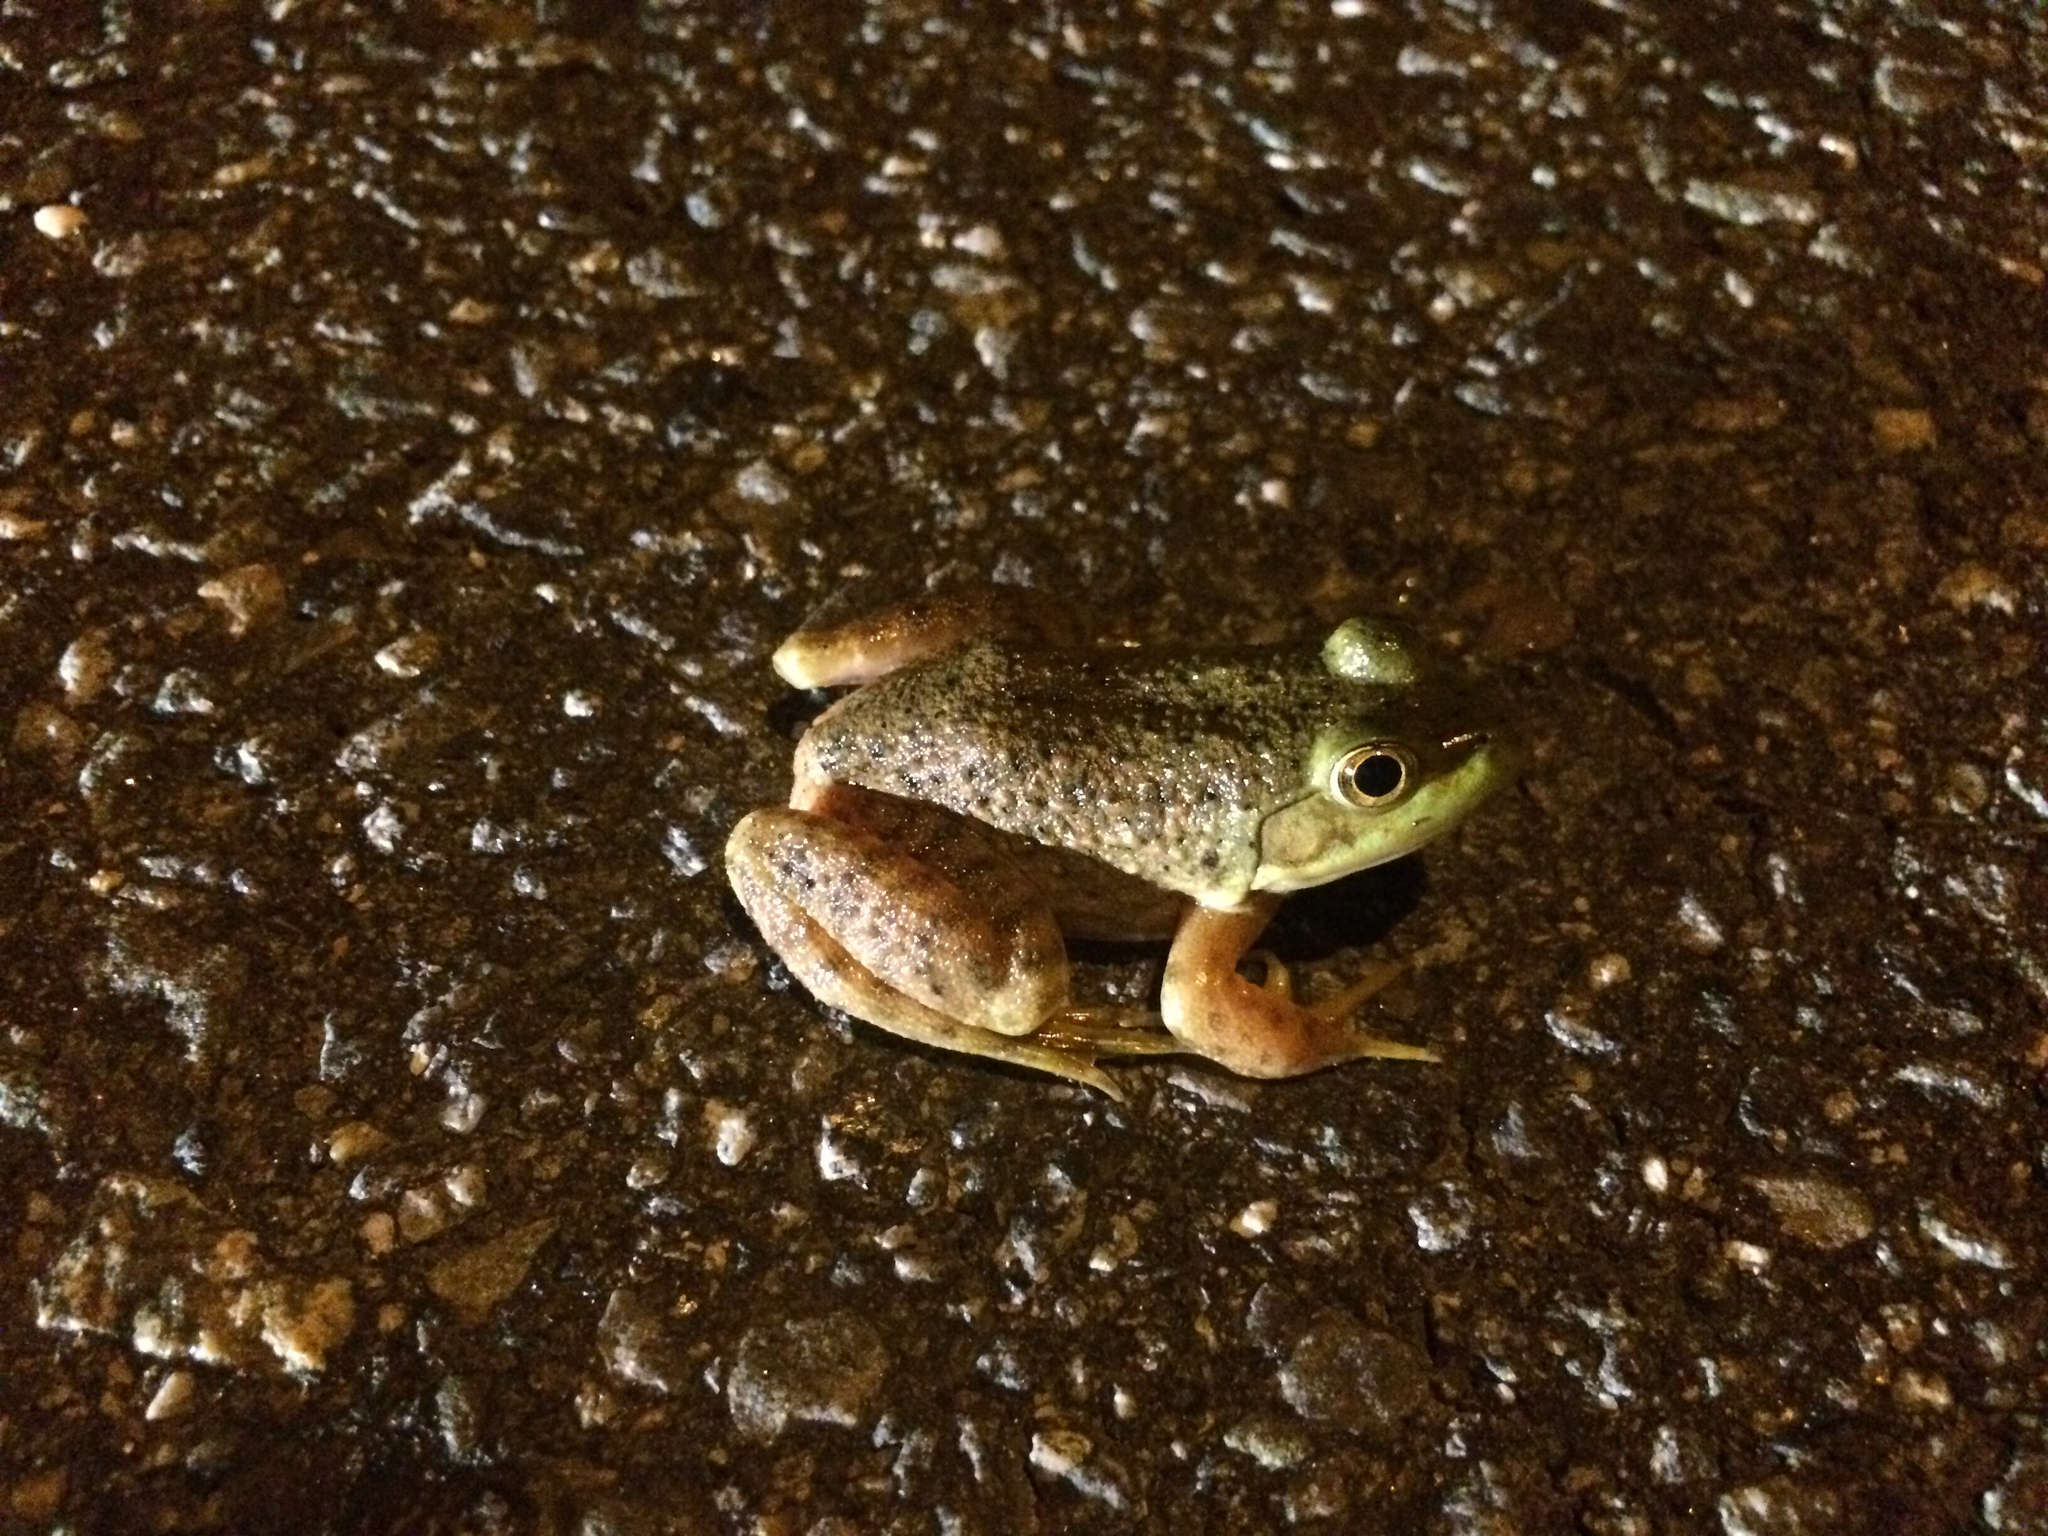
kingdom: Animalia
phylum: Chordata
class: Amphibia
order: Anura
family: Ranidae
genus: Lithobates
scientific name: Lithobates catesbeianus
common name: American bullfrog
